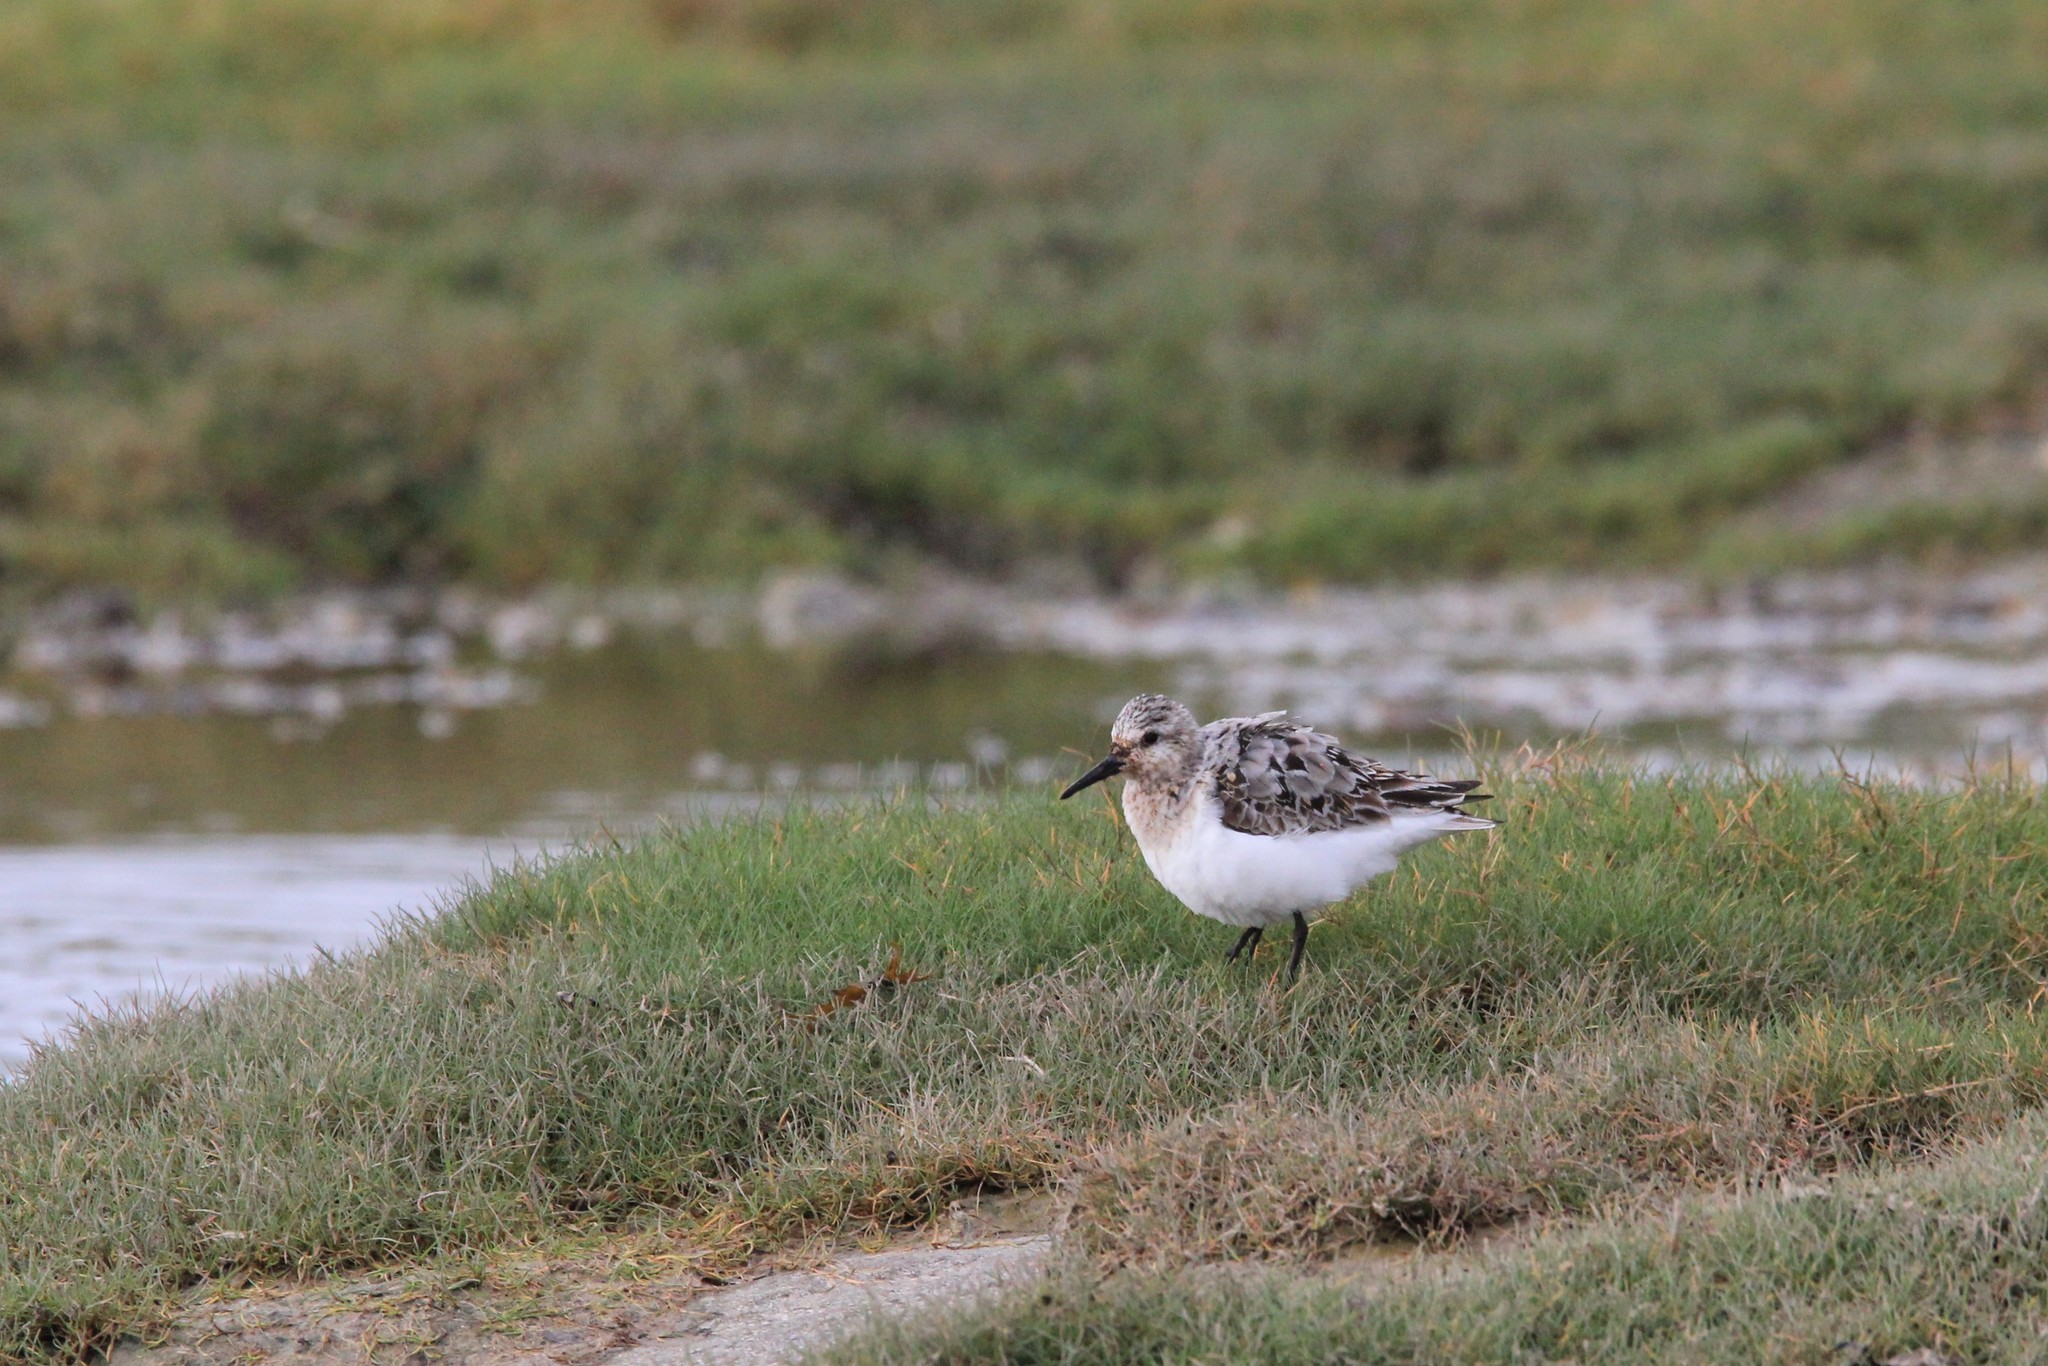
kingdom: Animalia
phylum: Chordata
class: Aves
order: Charadriiformes
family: Scolopacidae
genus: Calidris
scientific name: Calidris alba
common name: Sanderling
